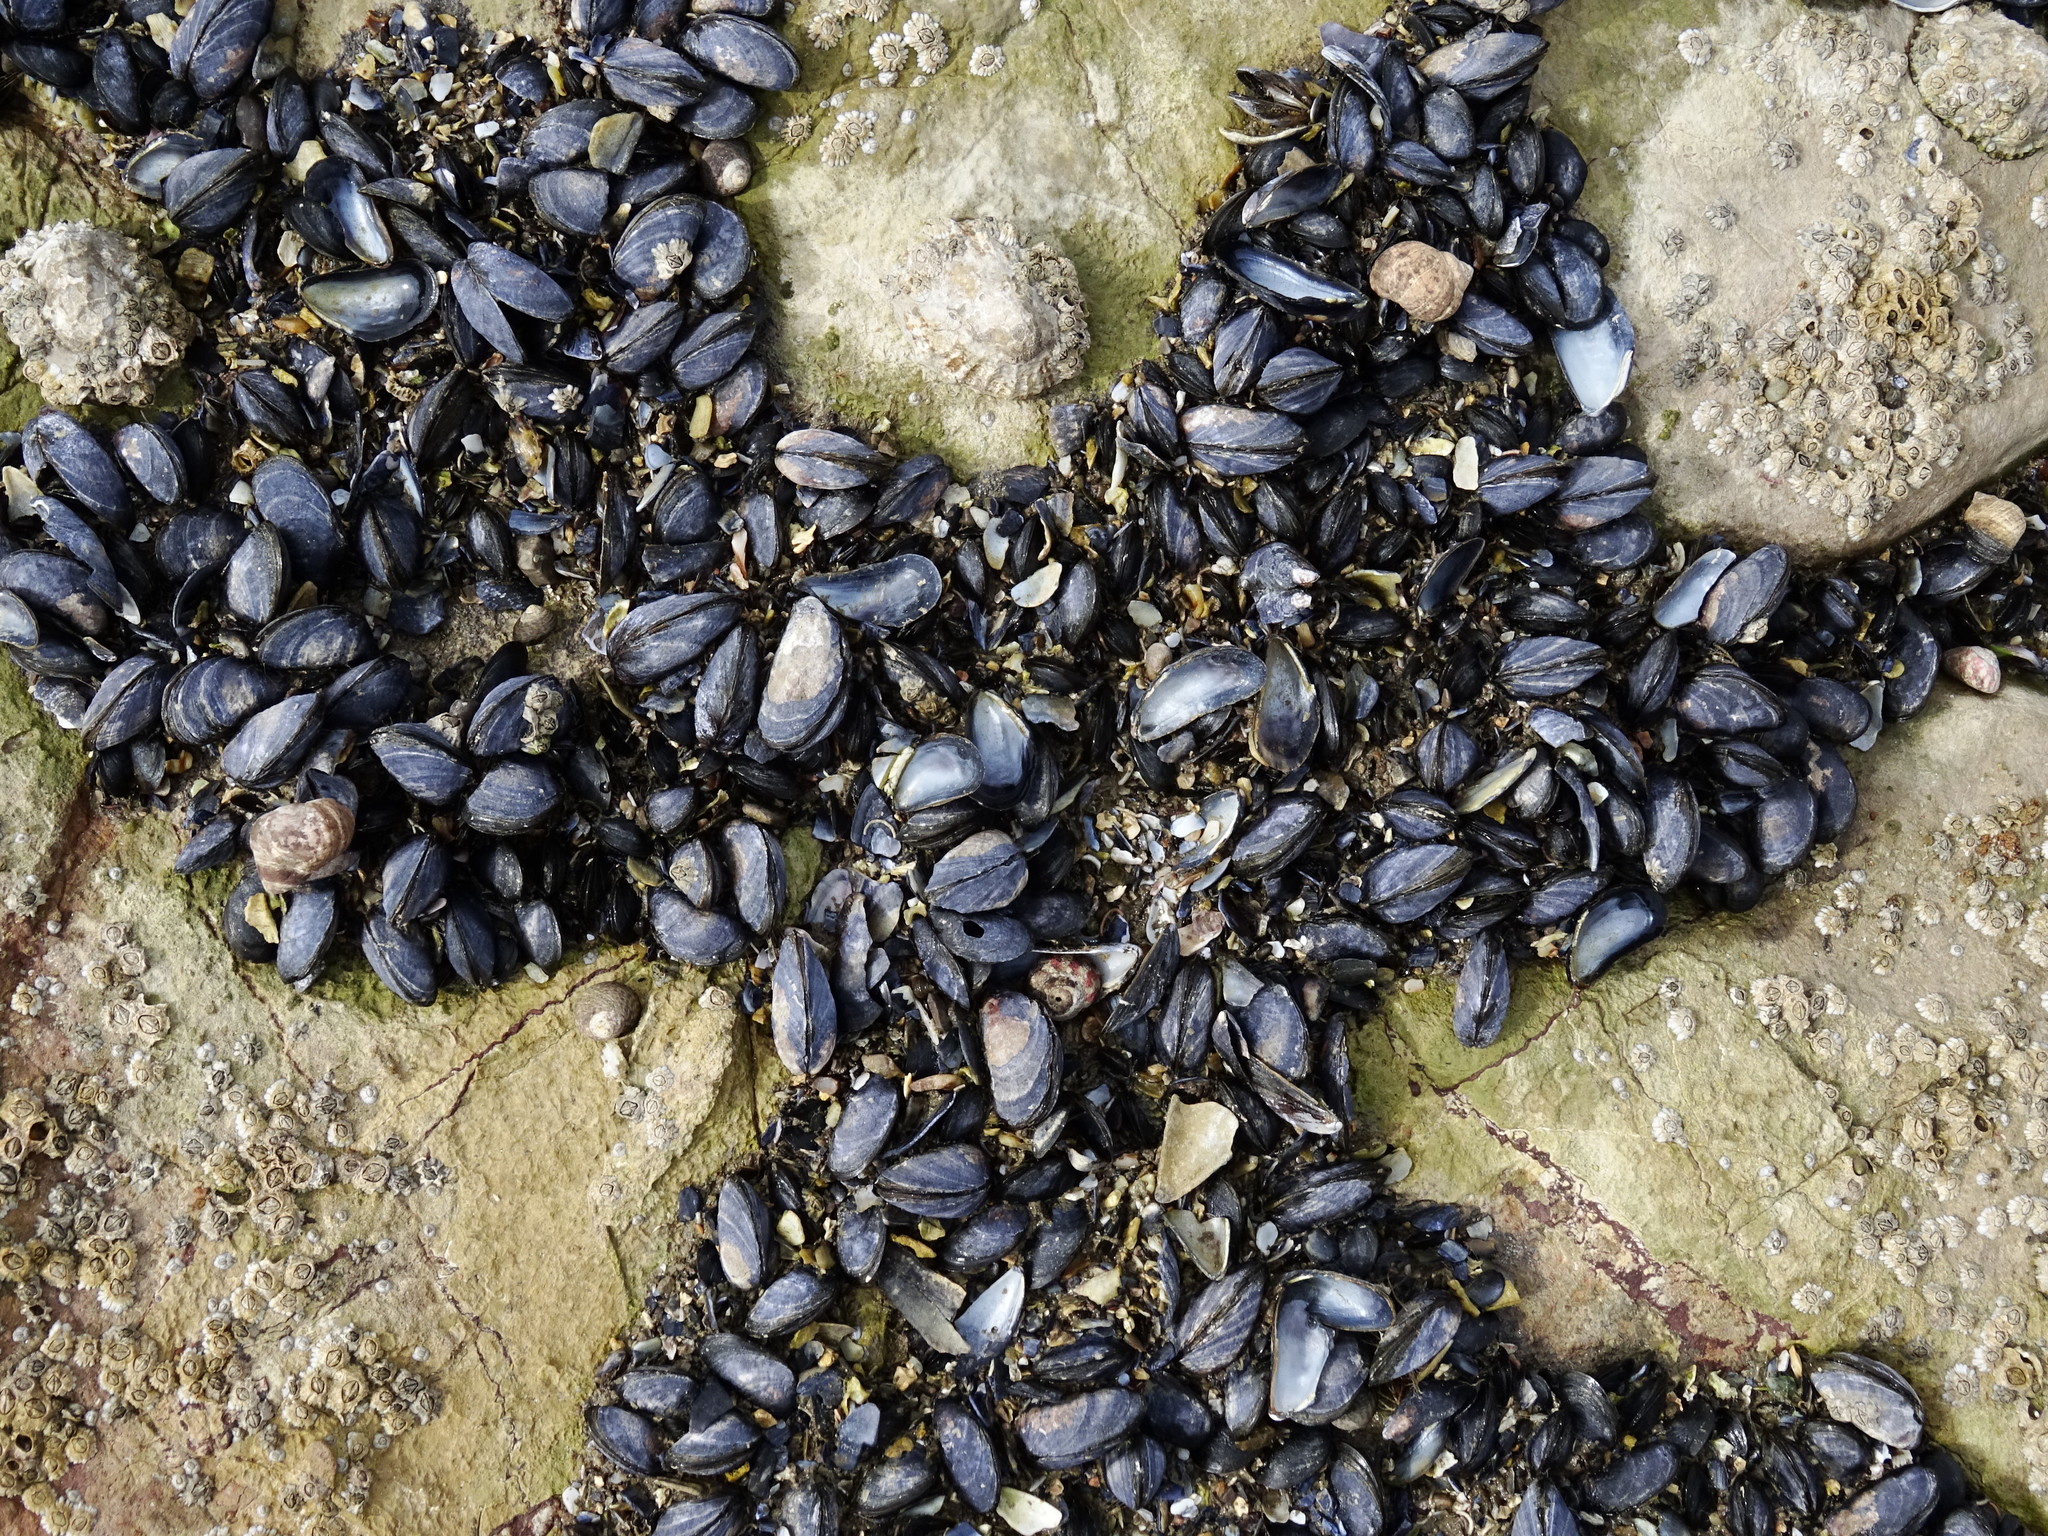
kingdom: Animalia
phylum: Mollusca
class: Bivalvia
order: Mytilida
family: Mytilidae
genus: Mytilus
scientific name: Mytilus edulis
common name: Blue mussel
